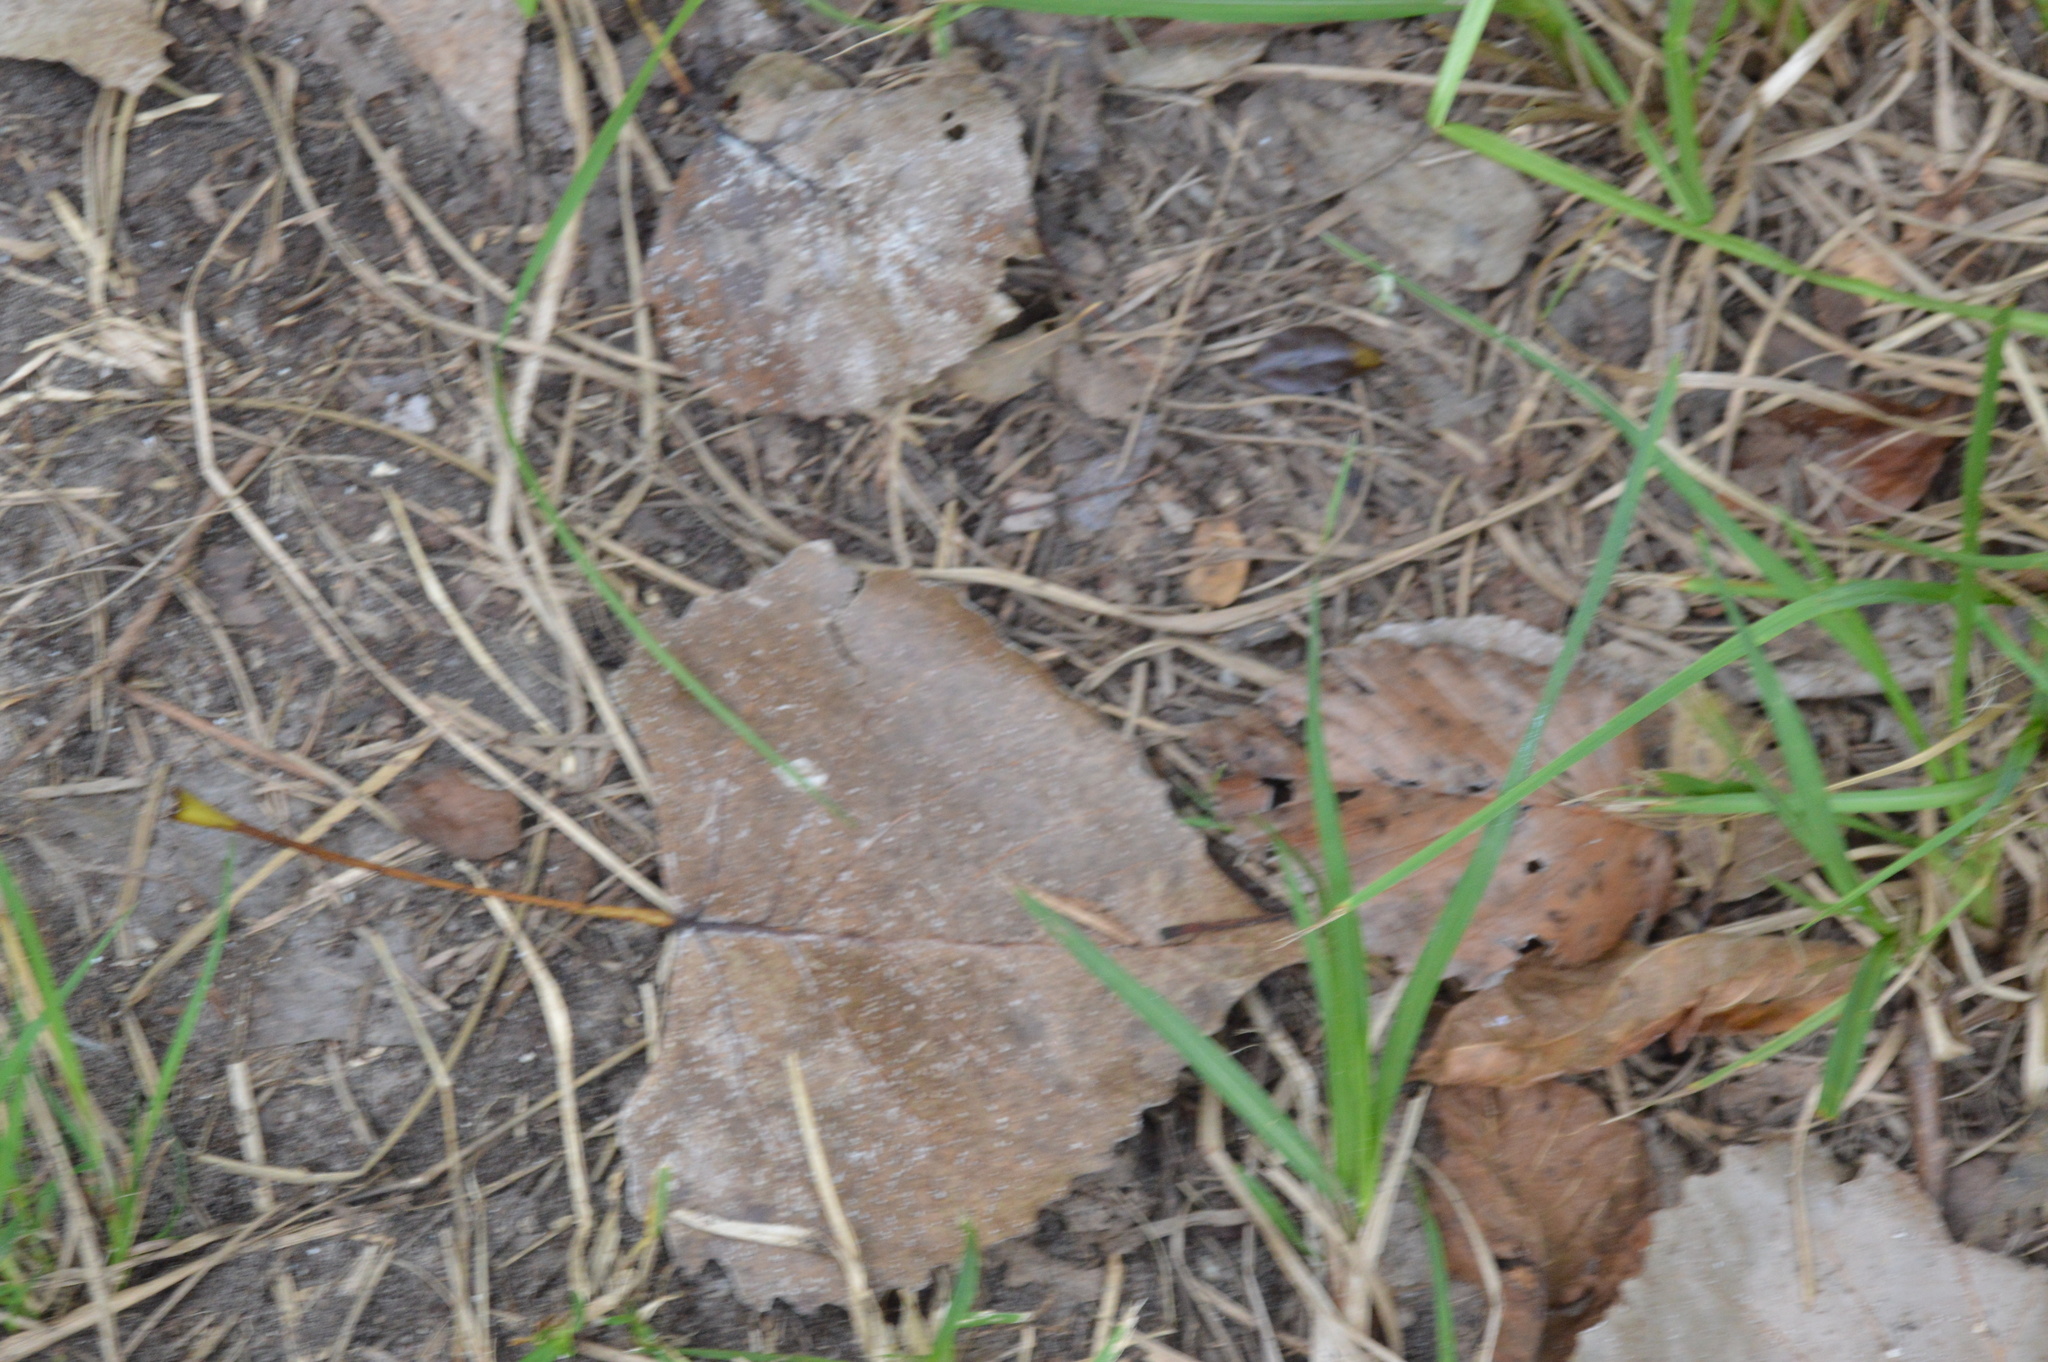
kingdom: Plantae
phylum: Tracheophyta
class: Magnoliopsida
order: Malpighiales
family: Salicaceae
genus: Populus
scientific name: Populus deltoides
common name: Eastern cottonwood
